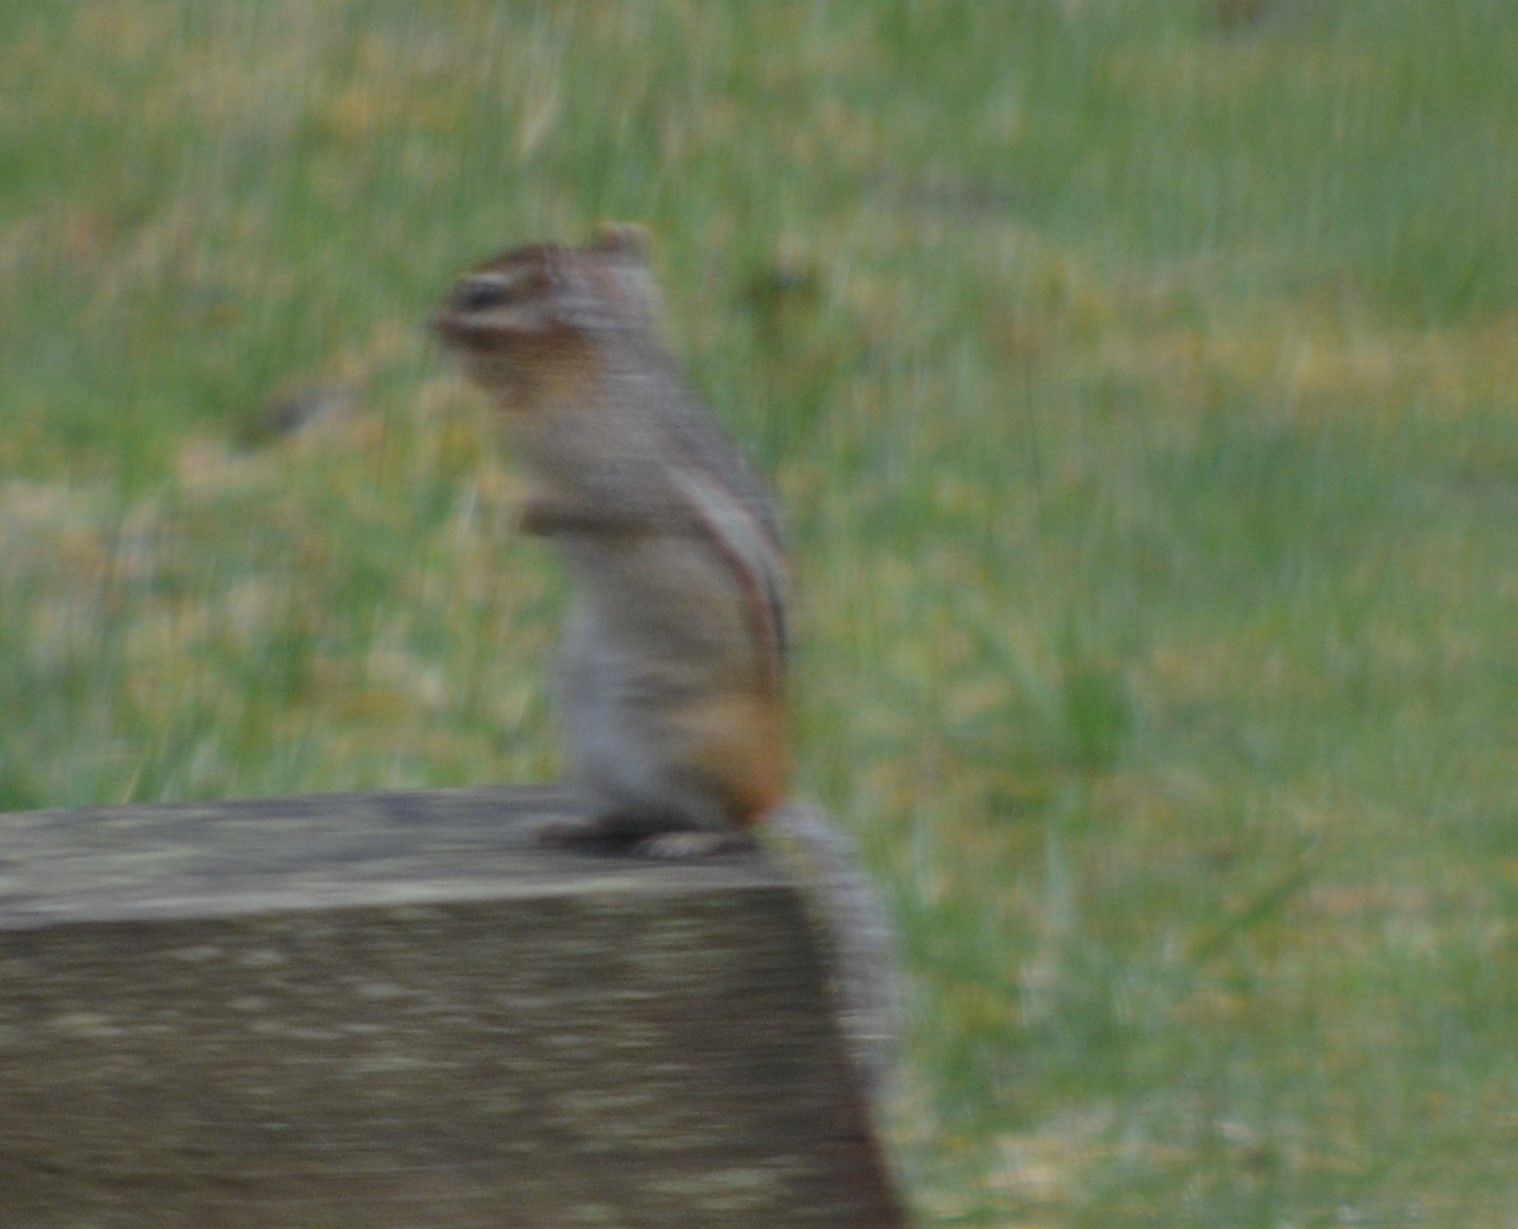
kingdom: Animalia
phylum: Chordata
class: Mammalia
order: Rodentia
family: Sciuridae
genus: Tamias
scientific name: Tamias striatus
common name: Eastern chipmunk
